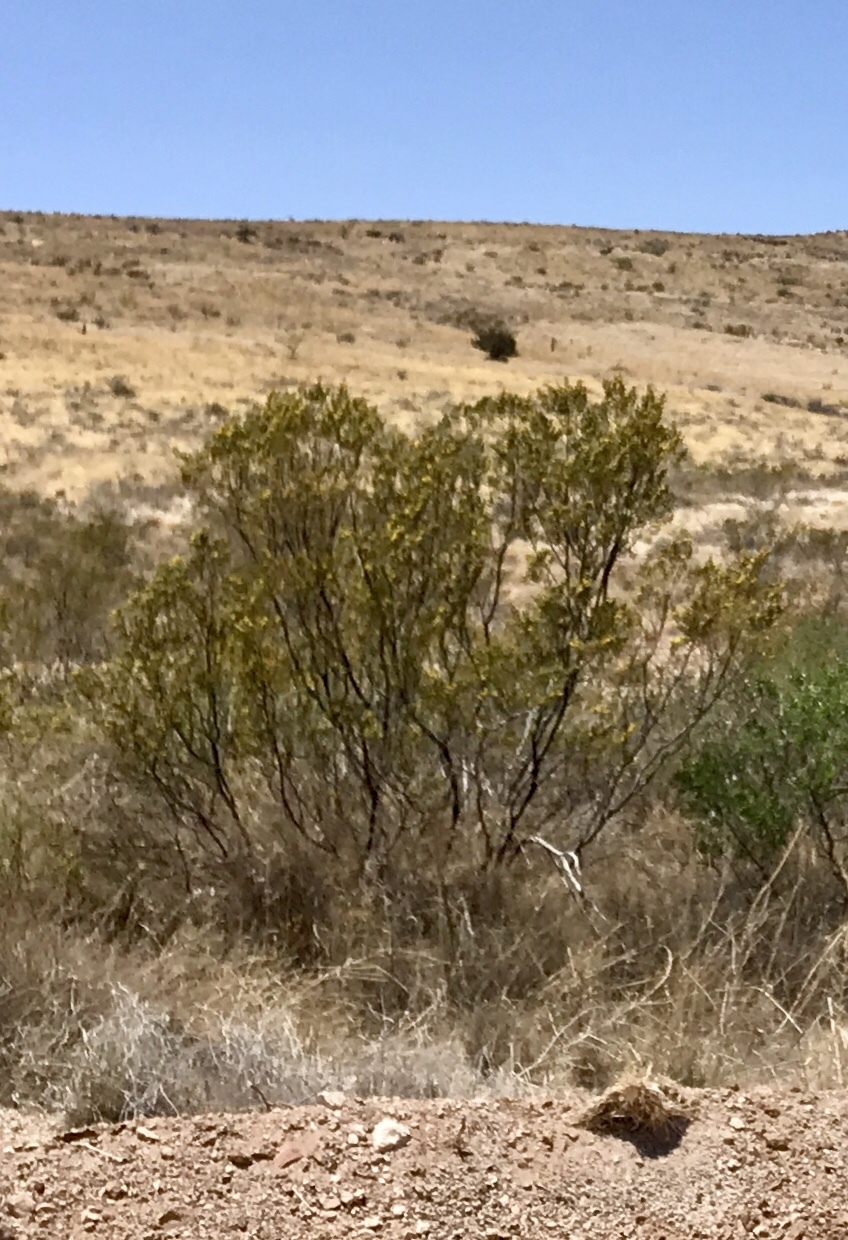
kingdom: Plantae
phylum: Tracheophyta
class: Magnoliopsida
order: Zygophyllales
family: Zygophyllaceae
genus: Larrea
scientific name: Larrea tridentata
